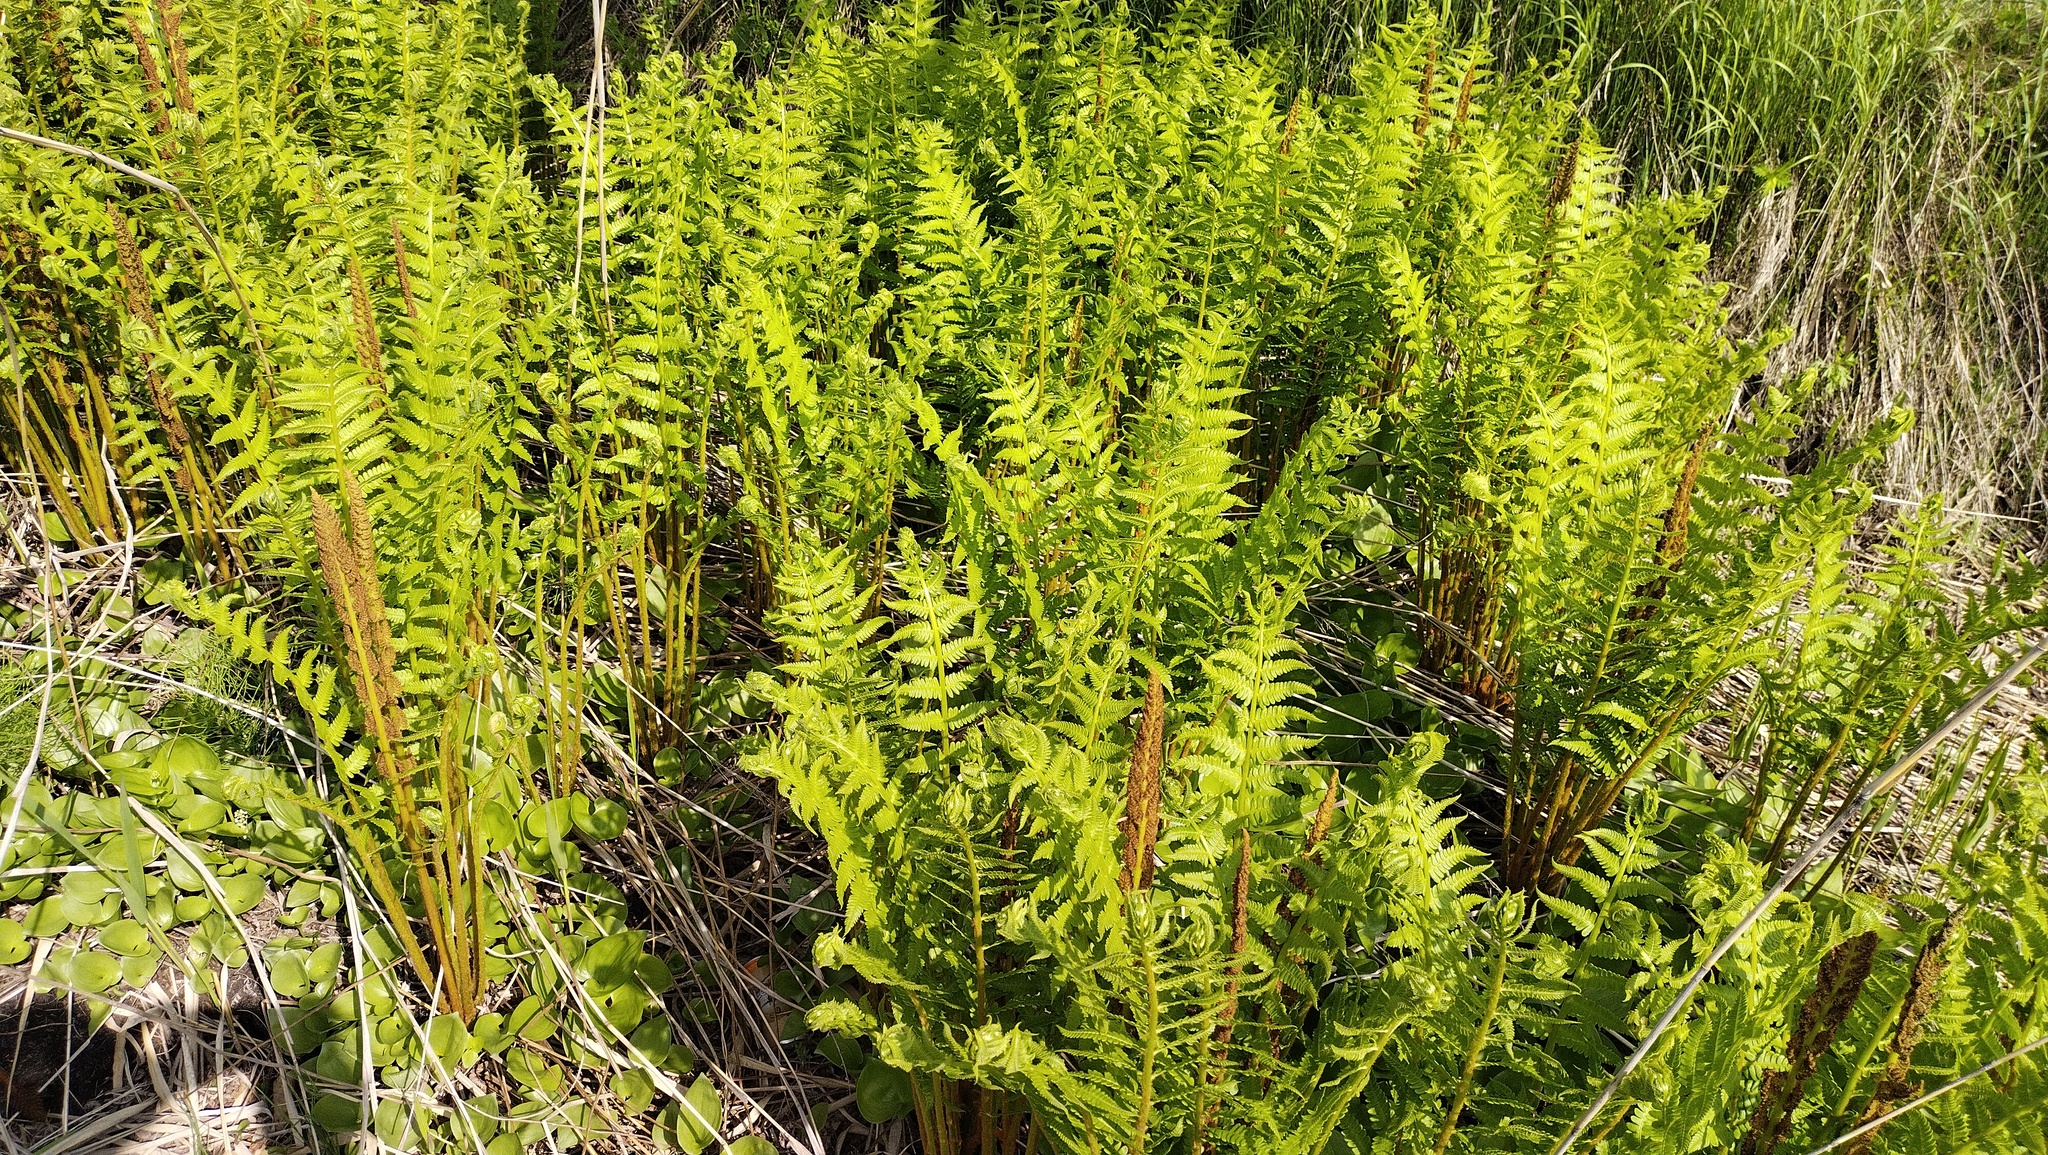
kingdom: Plantae
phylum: Tracheophyta
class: Polypodiopsida
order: Osmundales
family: Osmundaceae
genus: Osmundastrum
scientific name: Osmundastrum cinnamomeum
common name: Cinnamon fern
